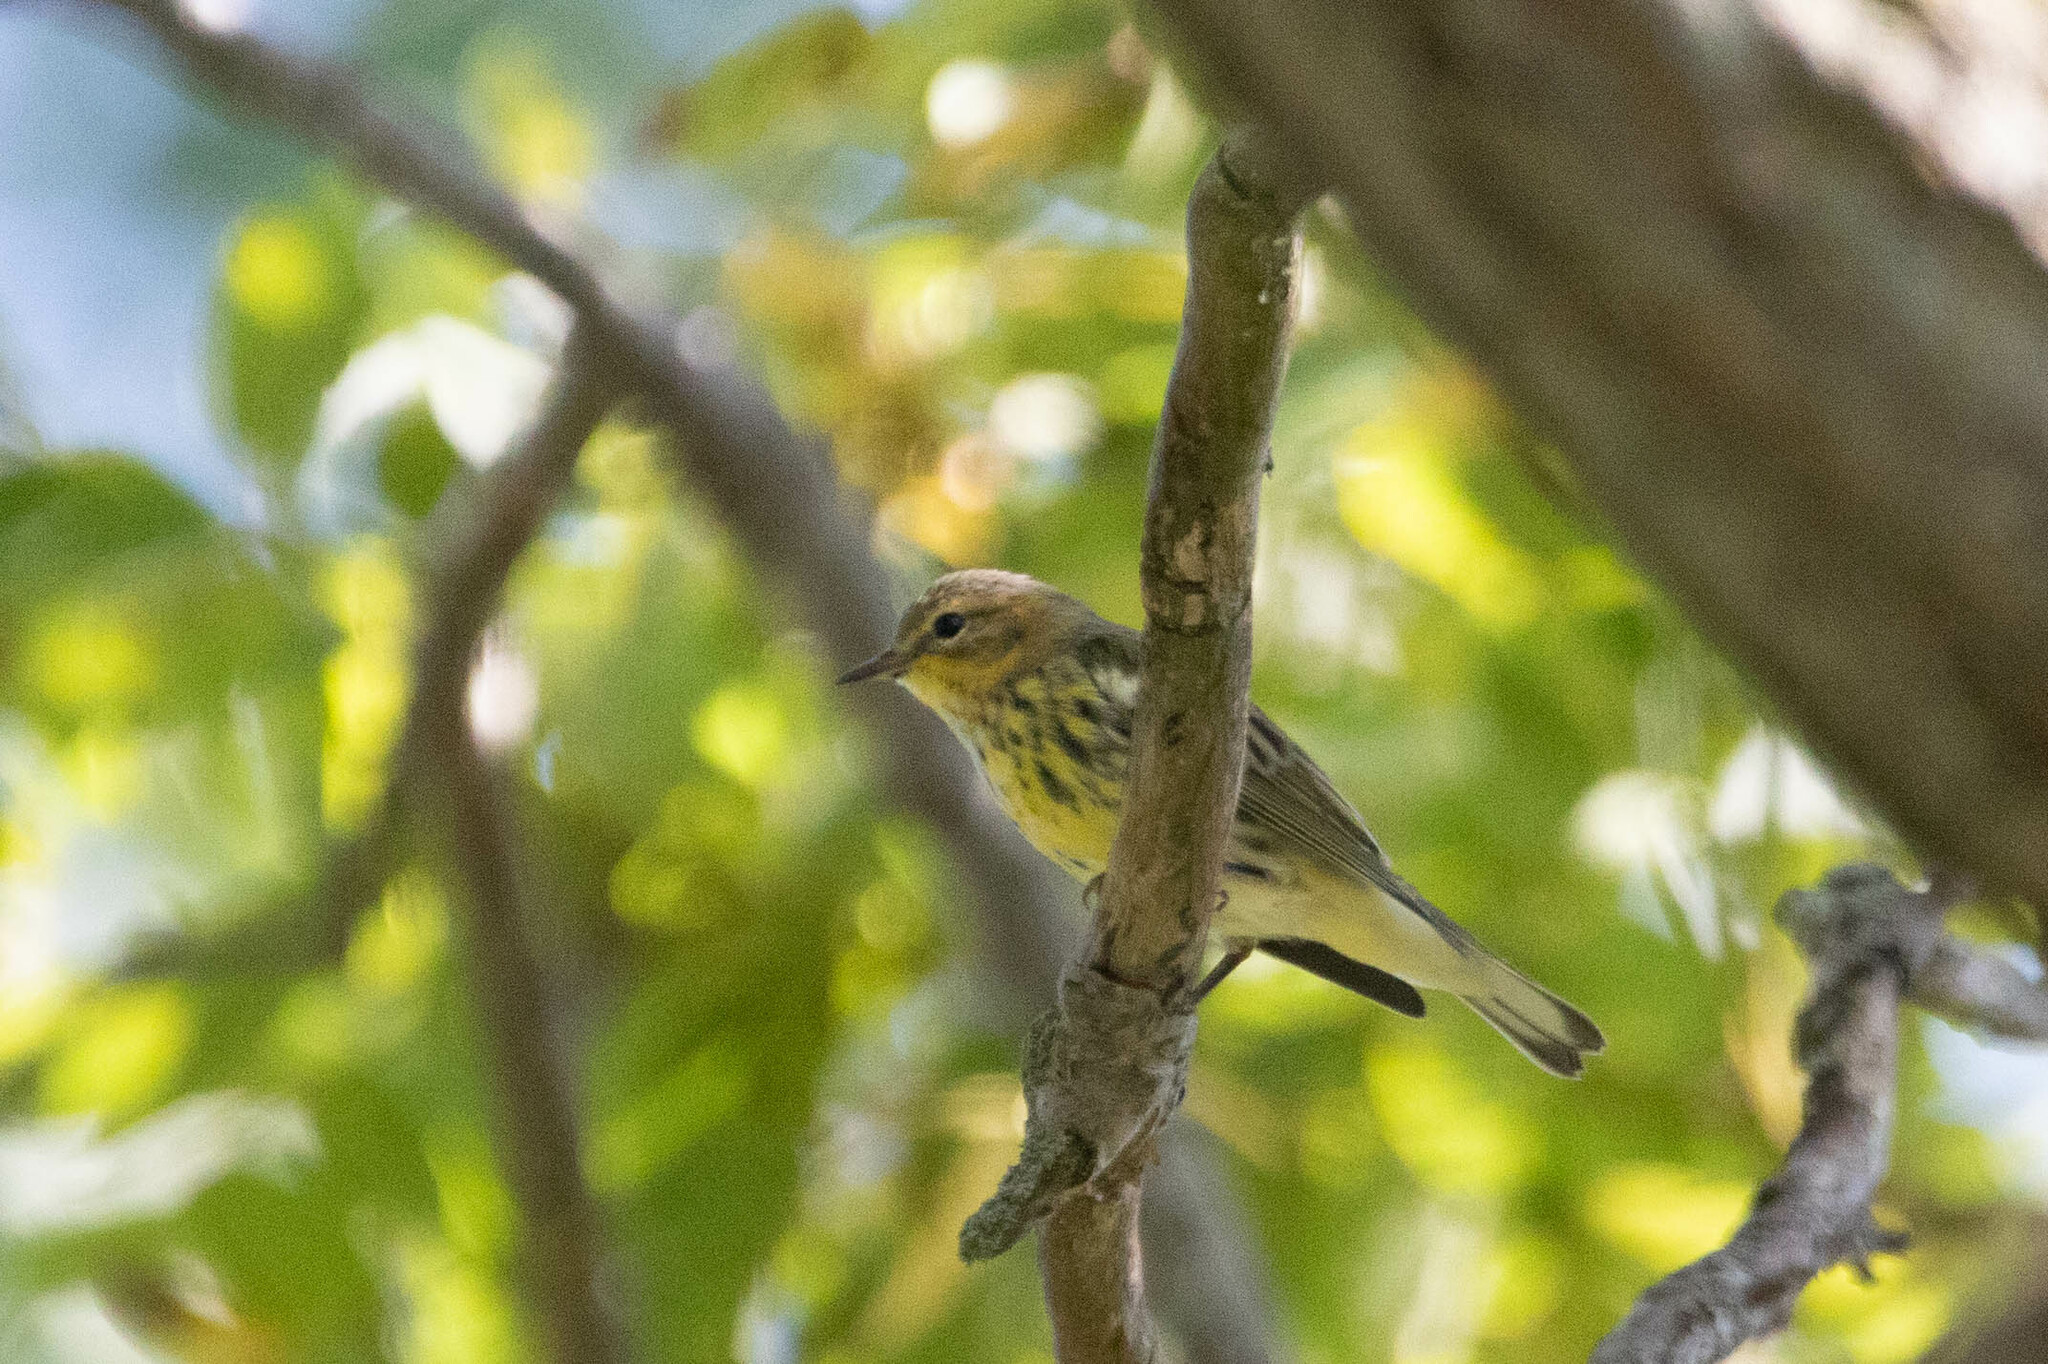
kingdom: Animalia
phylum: Chordata
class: Aves
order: Passeriformes
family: Parulidae
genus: Setophaga
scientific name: Setophaga tigrina
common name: Cape may warbler
